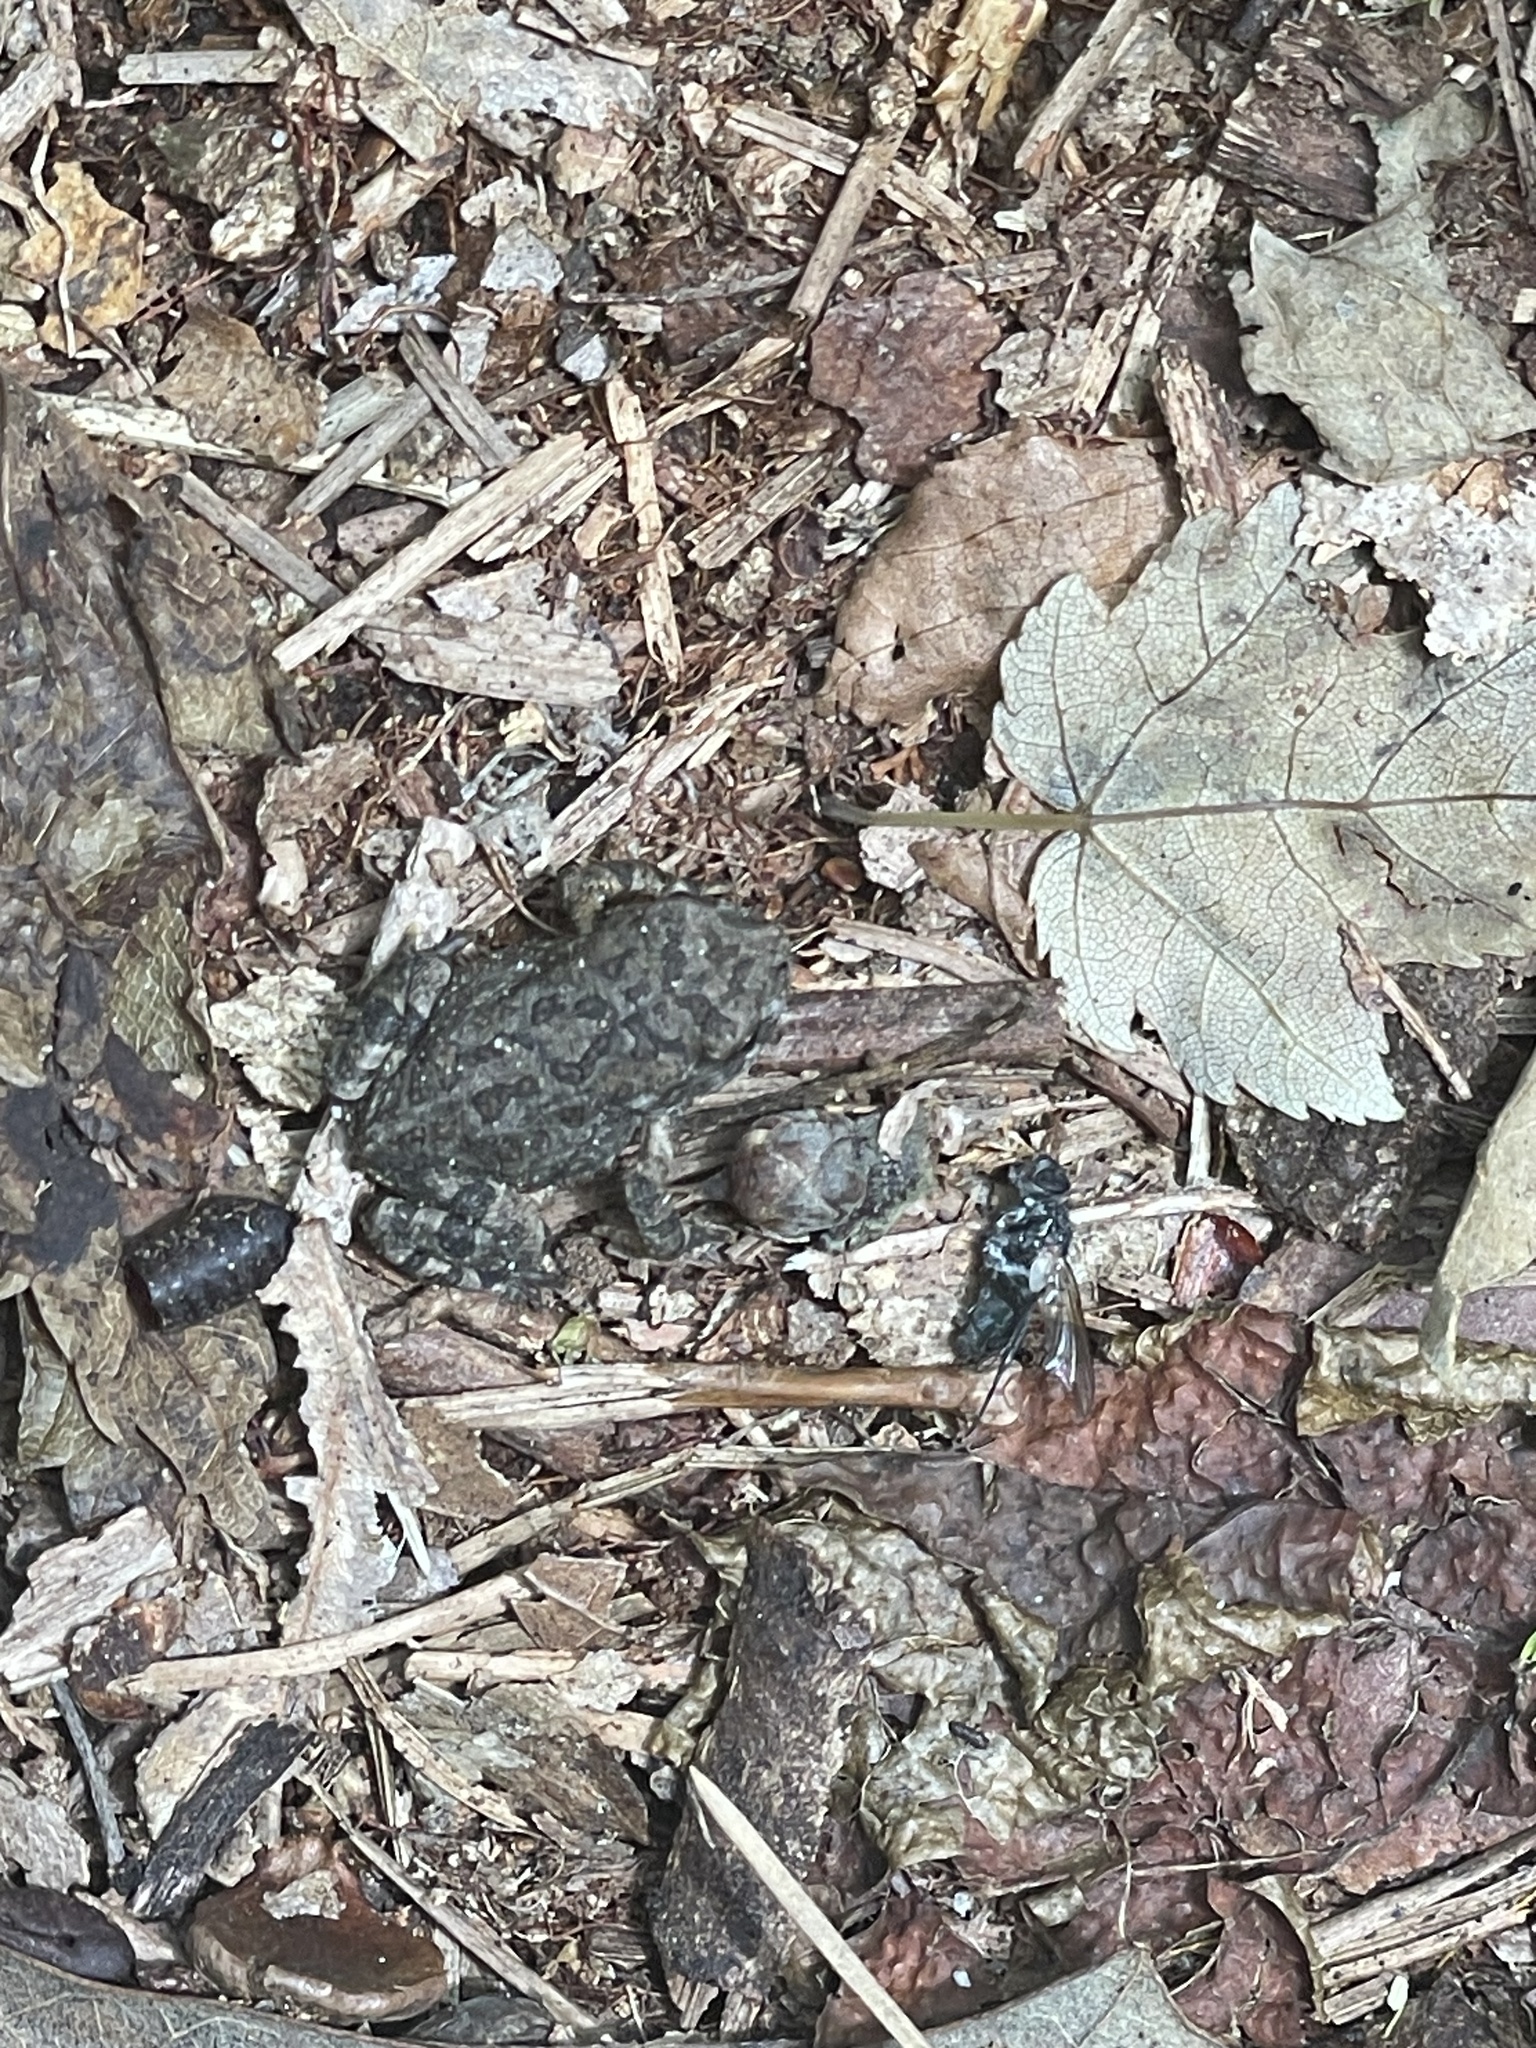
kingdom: Animalia
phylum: Chordata
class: Amphibia
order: Anura
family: Bufonidae
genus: Anaxyrus
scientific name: Anaxyrus fowleri
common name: Fowler's toad
